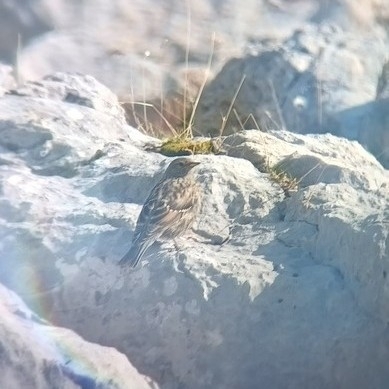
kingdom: Animalia
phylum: Chordata
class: Aves
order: Passeriformes
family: Prunellidae
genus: Prunella
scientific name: Prunella collaris
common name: Alpine accentor
